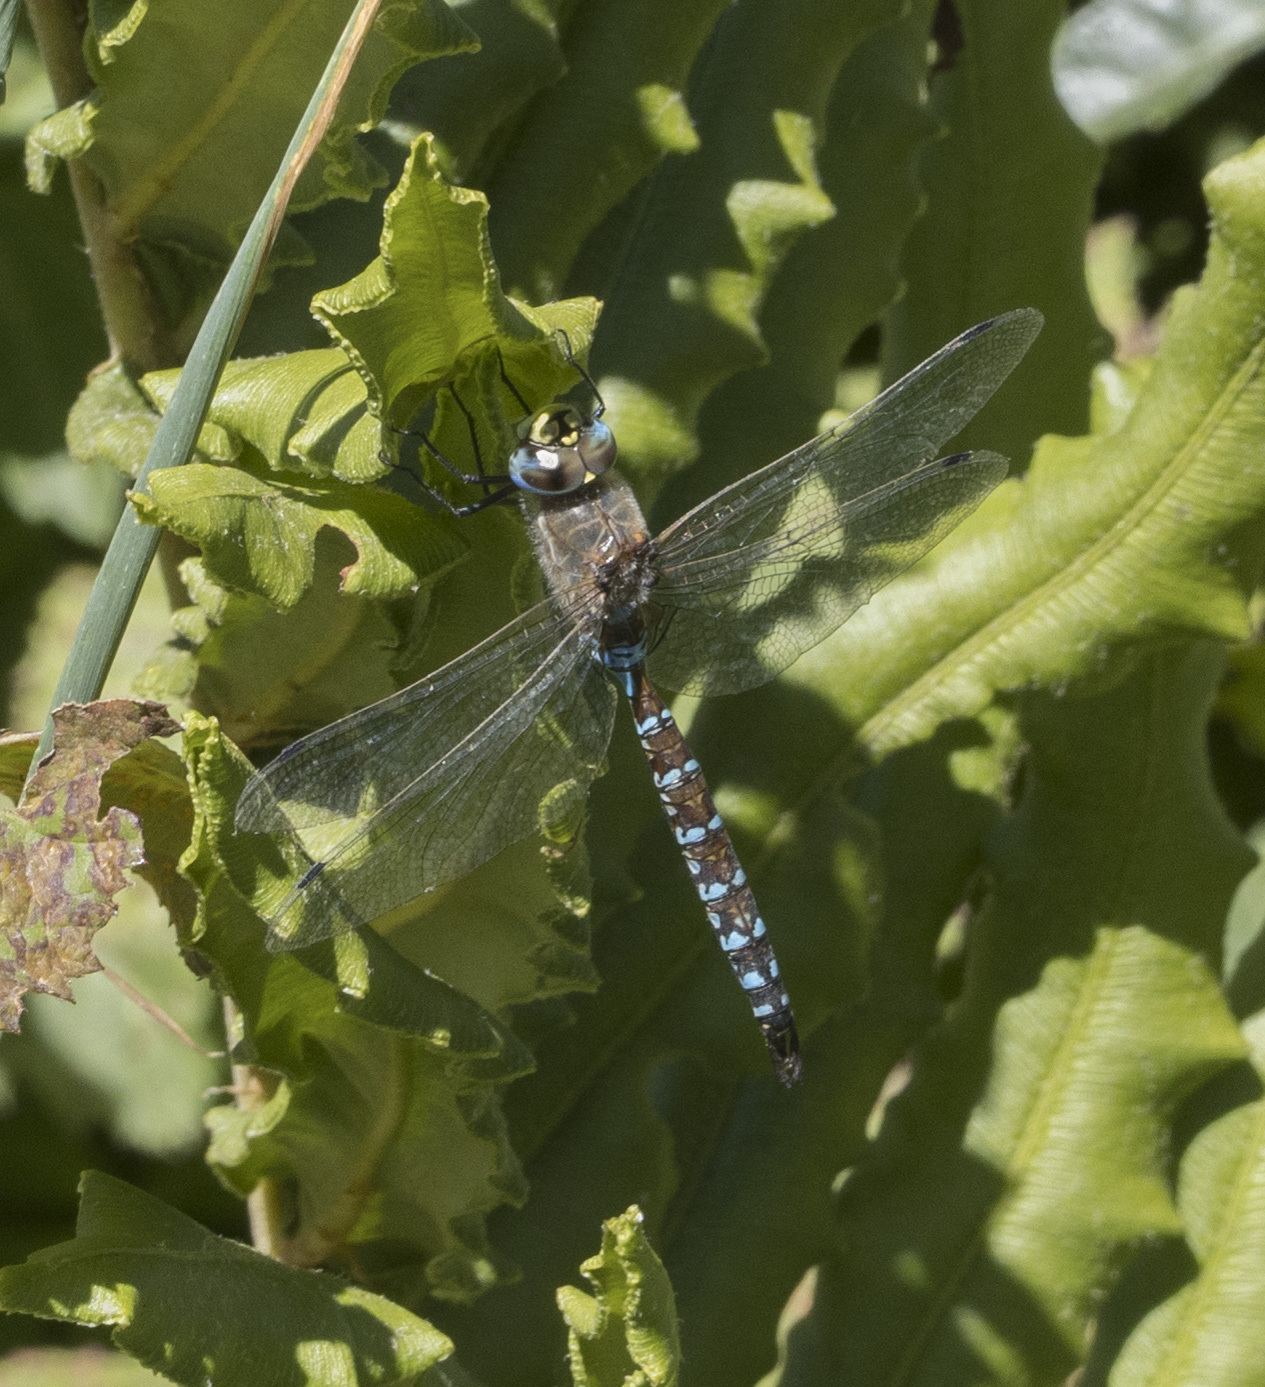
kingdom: Animalia
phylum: Arthropoda
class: Insecta
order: Odonata
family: Aeshnidae
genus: Rhionaeschna
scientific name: Rhionaeschna diffinis
